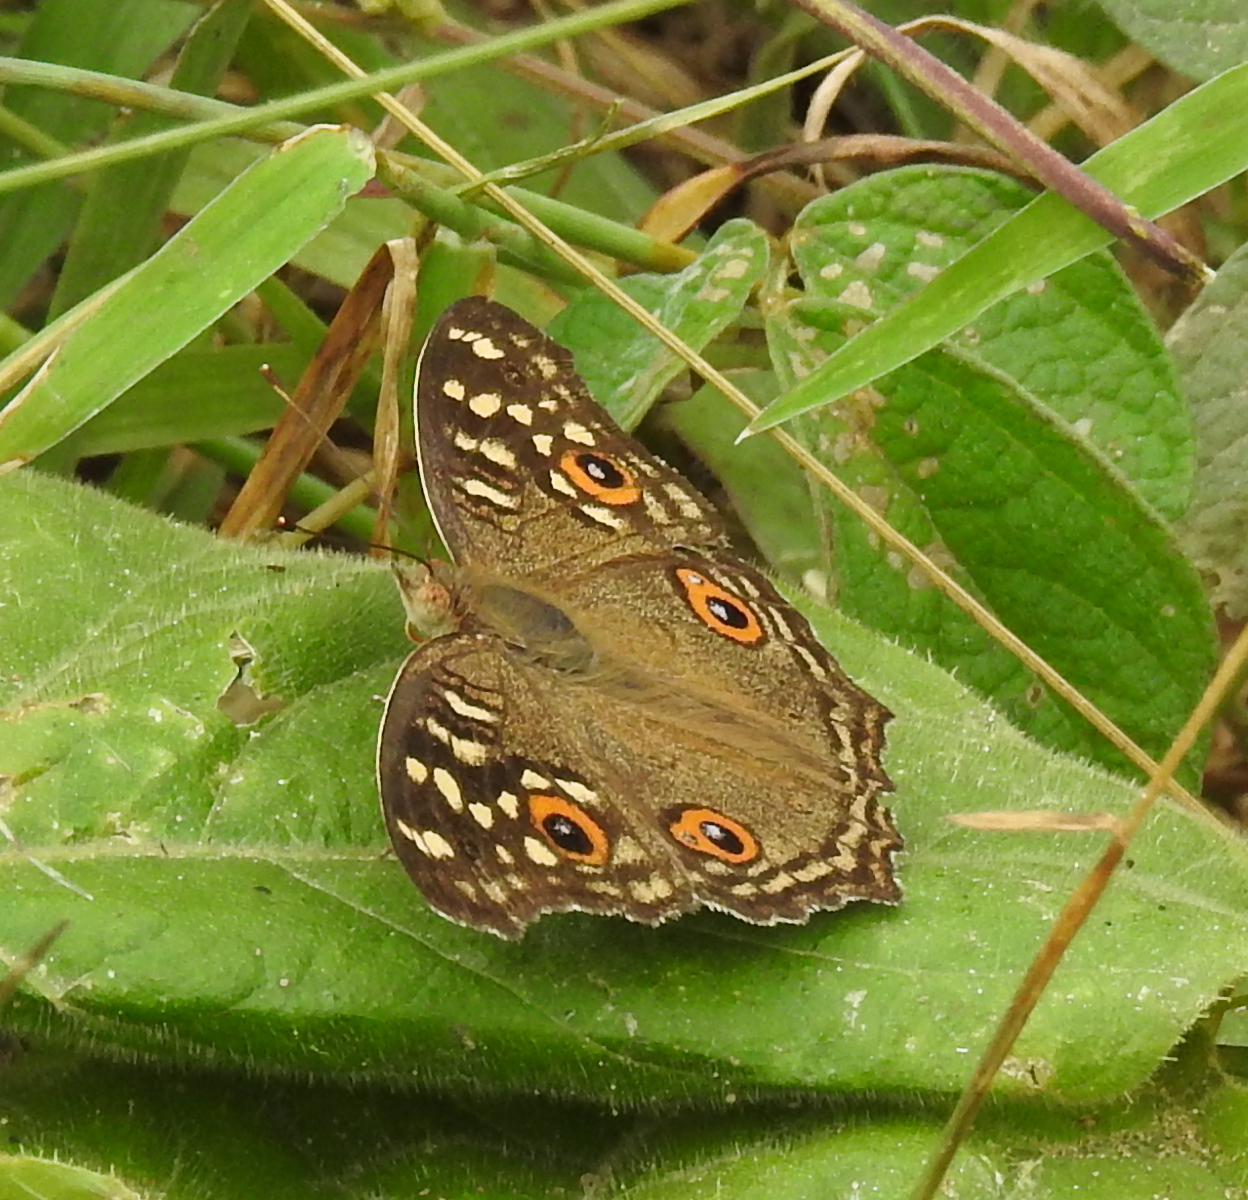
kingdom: Animalia
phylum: Arthropoda
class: Insecta
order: Lepidoptera
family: Nymphalidae
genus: Junonia
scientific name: Junonia lemonias
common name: Lemon pansy
